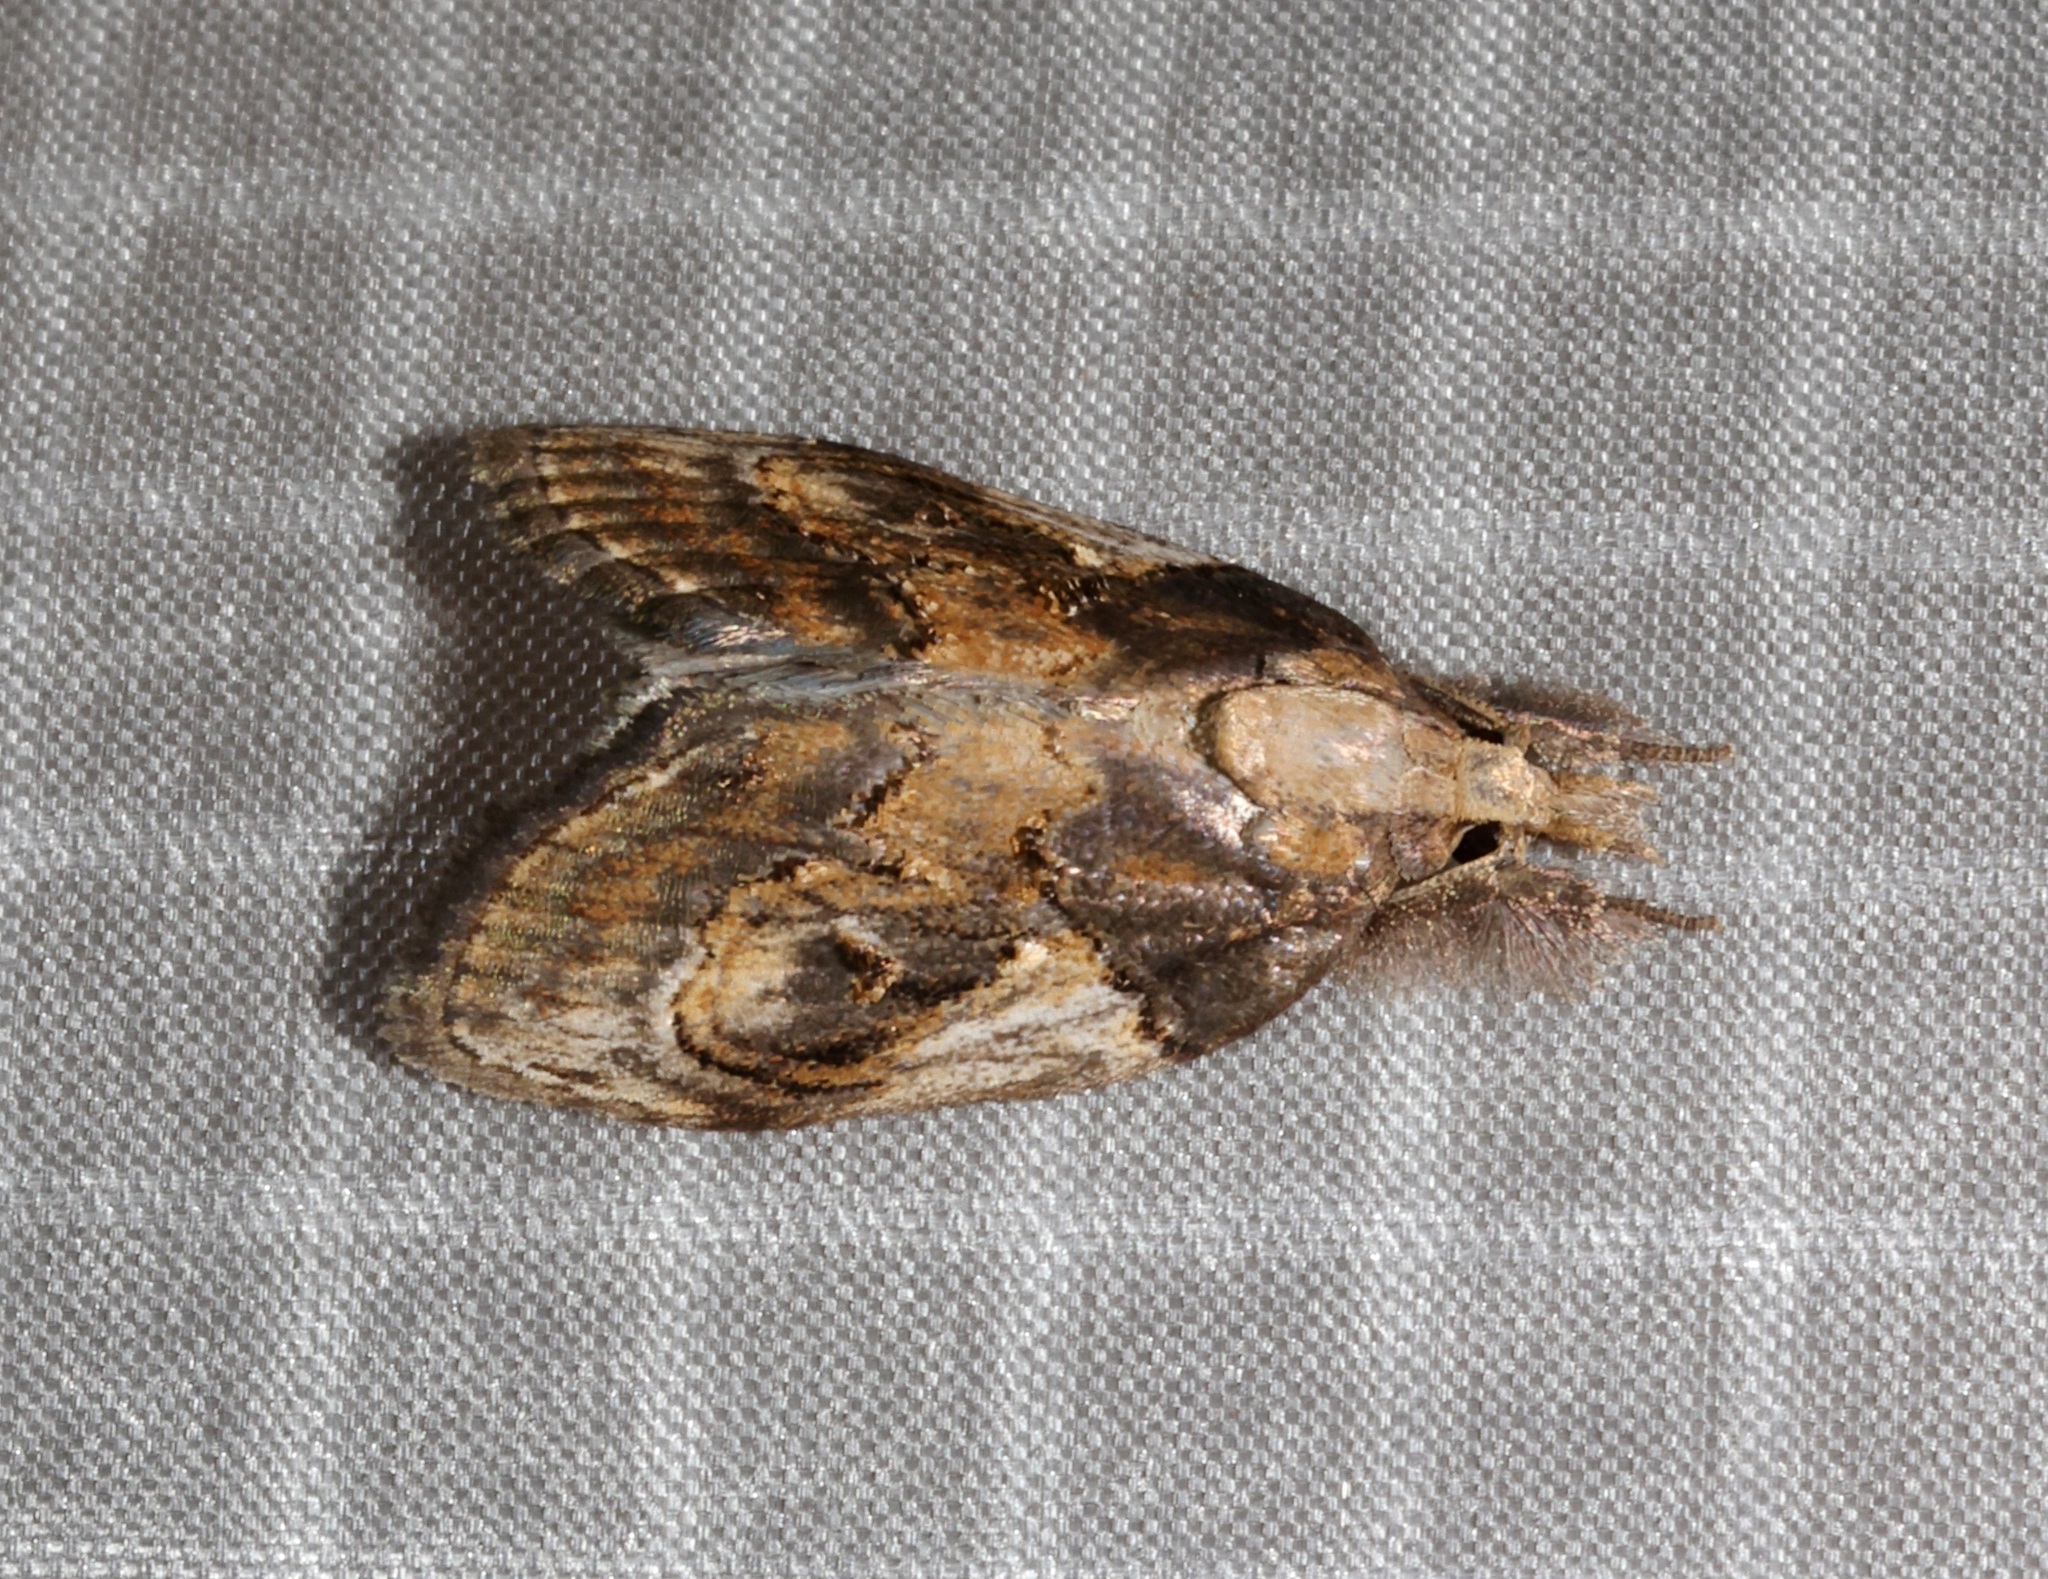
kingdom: Animalia
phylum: Arthropoda
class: Insecta
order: Lepidoptera
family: Nolidae
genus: Selepa
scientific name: Selepa molybdea
